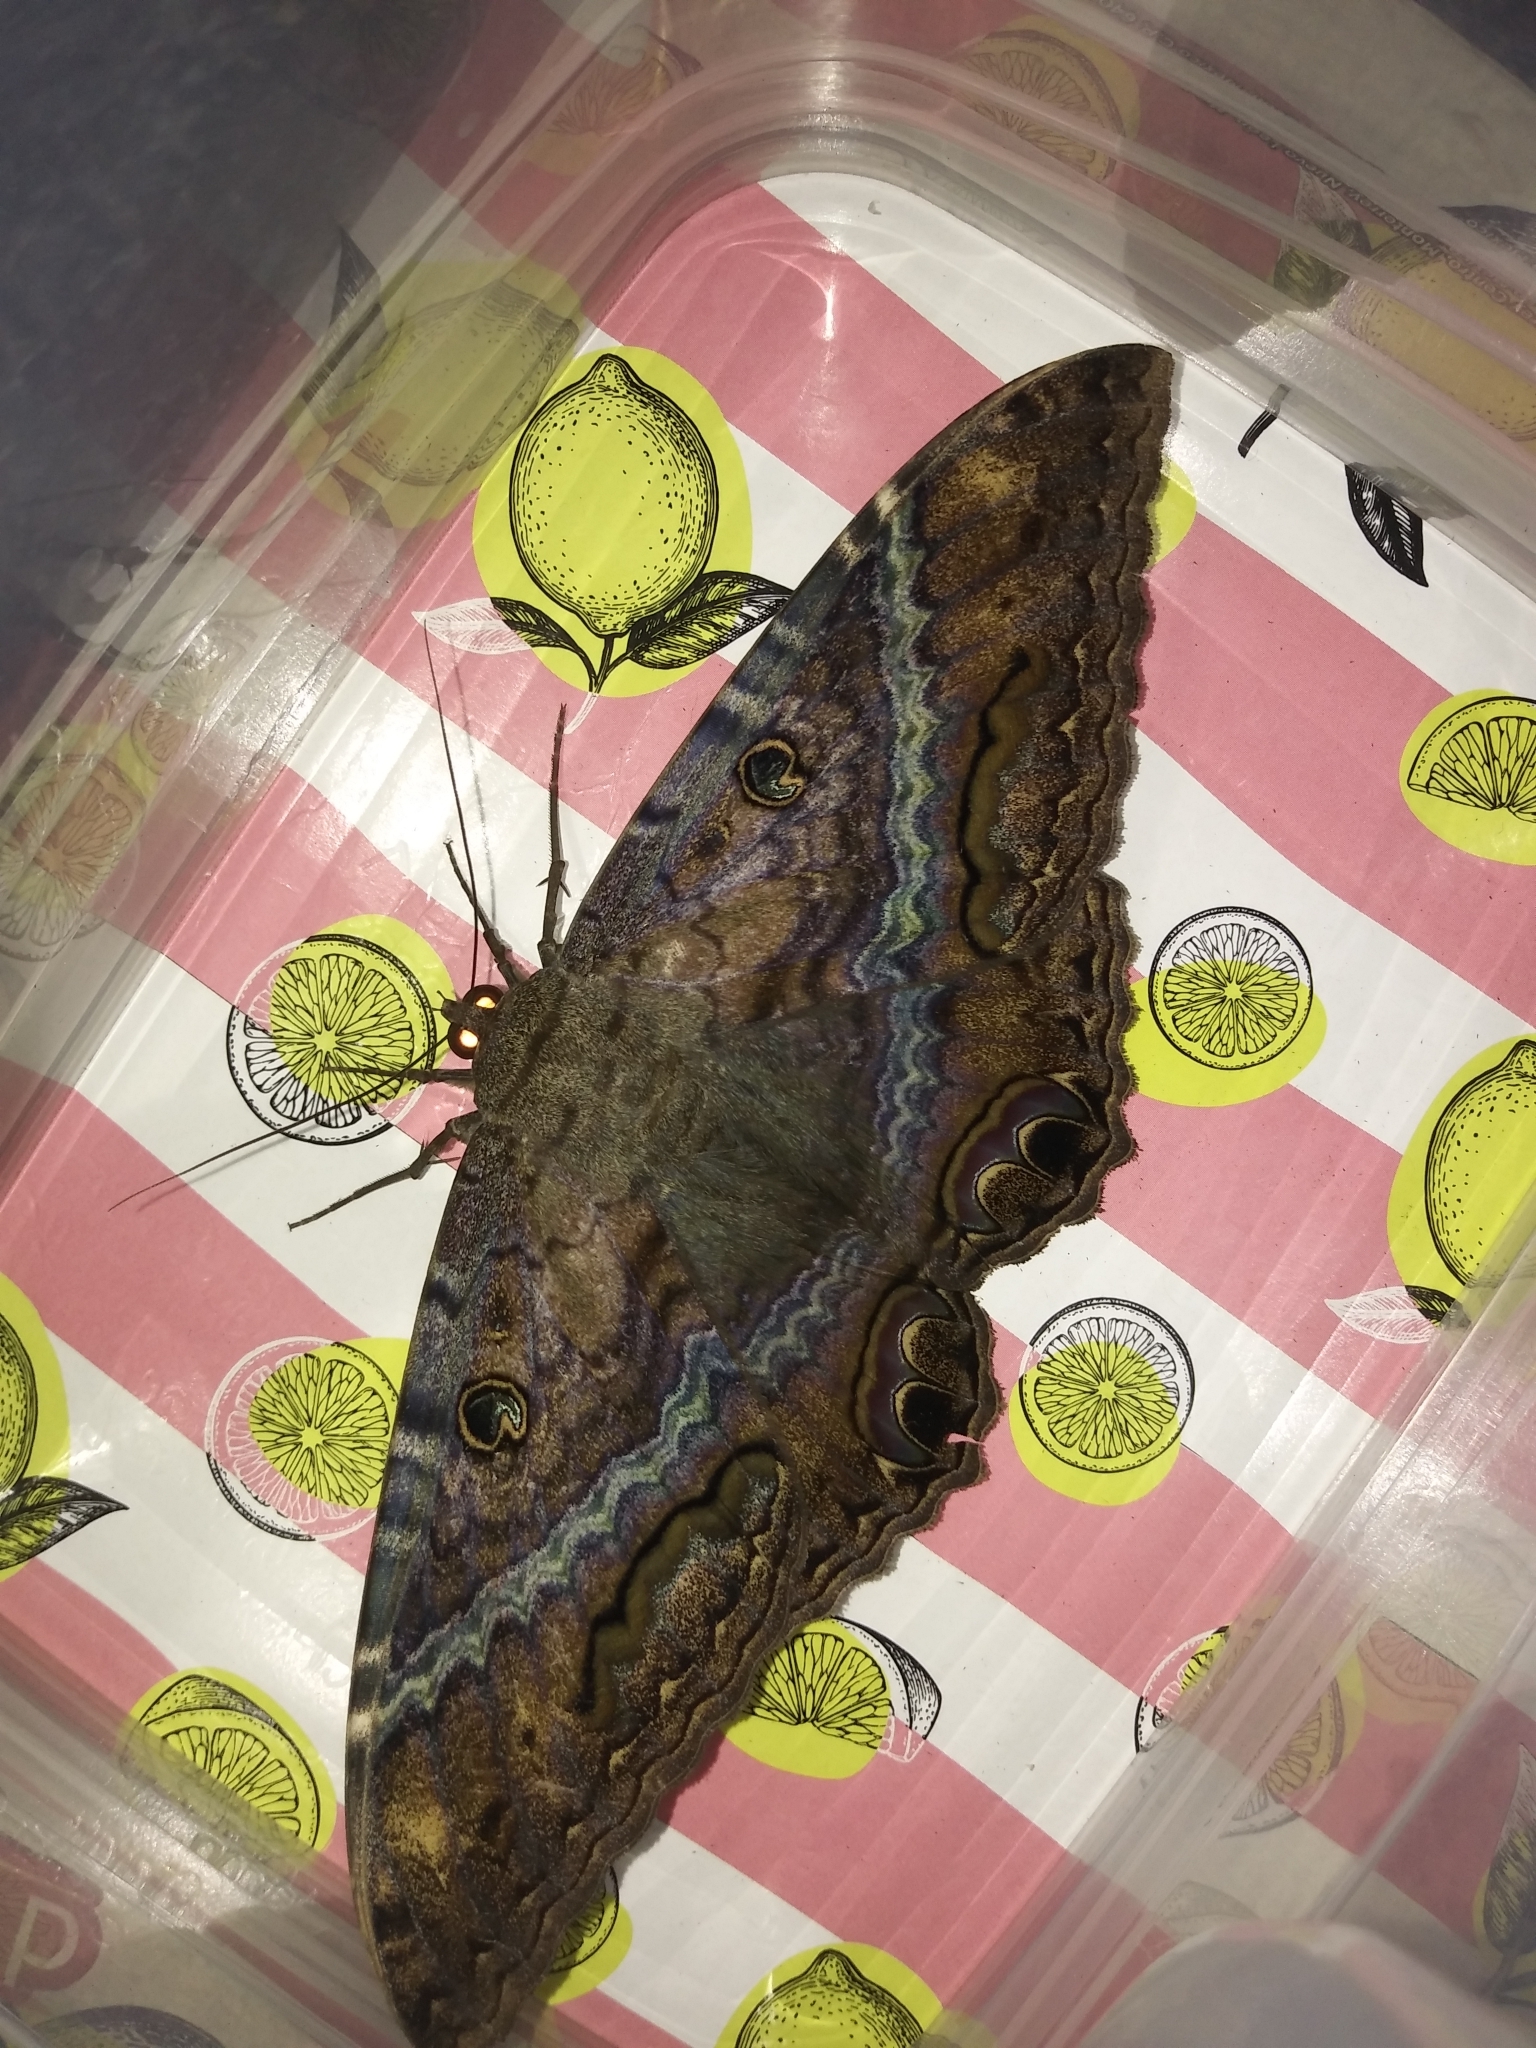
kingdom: Animalia
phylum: Arthropoda
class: Insecta
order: Lepidoptera
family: Erebidae
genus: Ascalapha
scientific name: Ascalapha odorata
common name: Black witch
